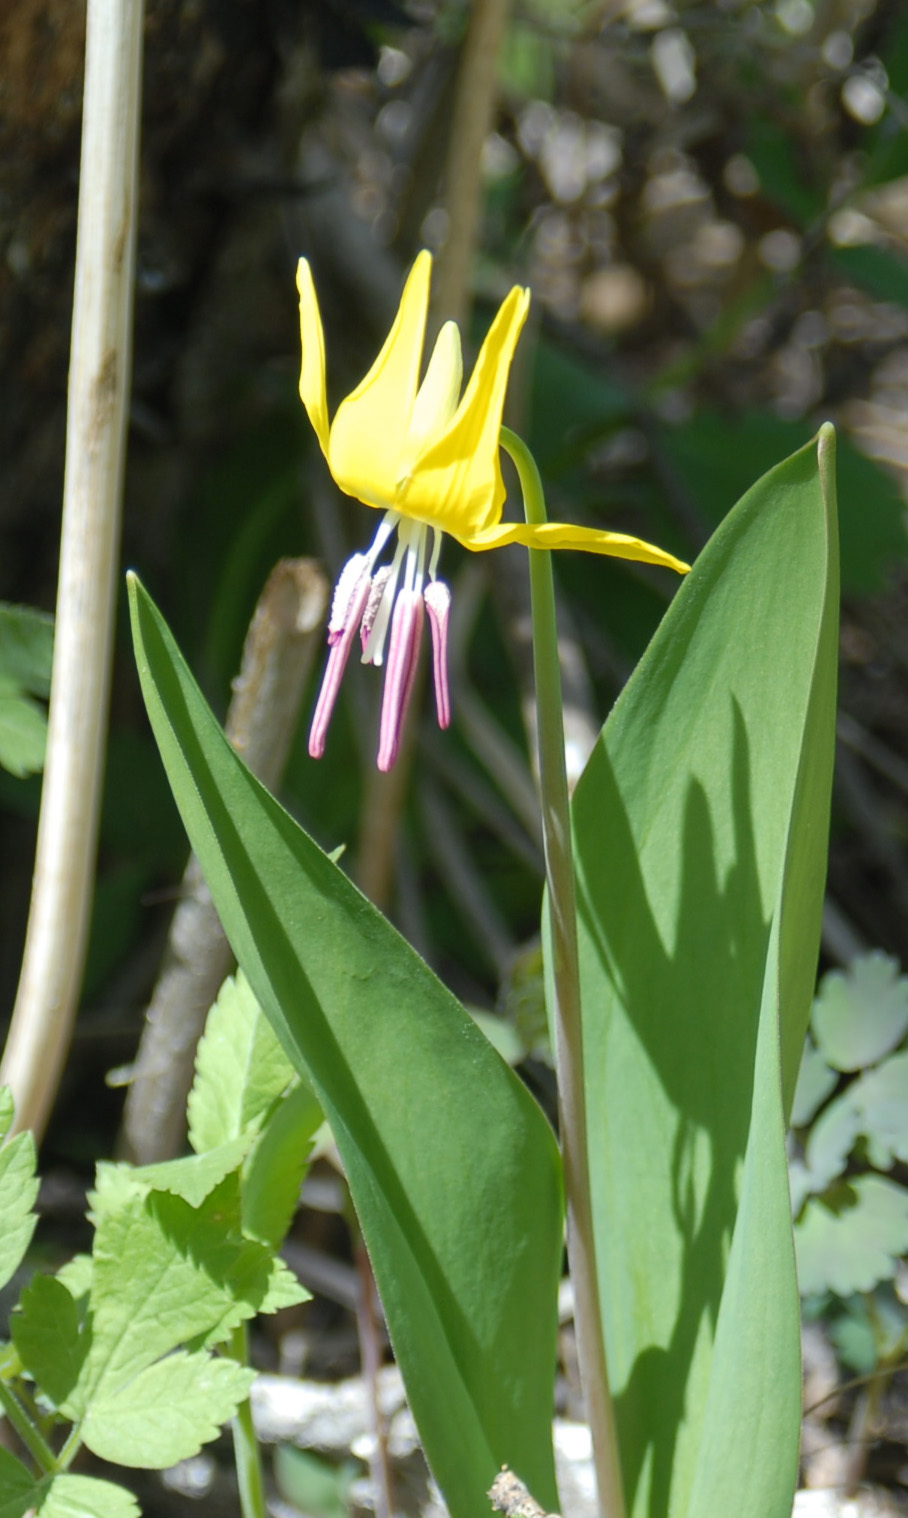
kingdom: Plantae
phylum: Tracheophyta
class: Liliopsida
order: Liliales
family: Liliaceae
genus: Erythronium
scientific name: Erythronium grandiflorum
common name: Avalanche-lily
